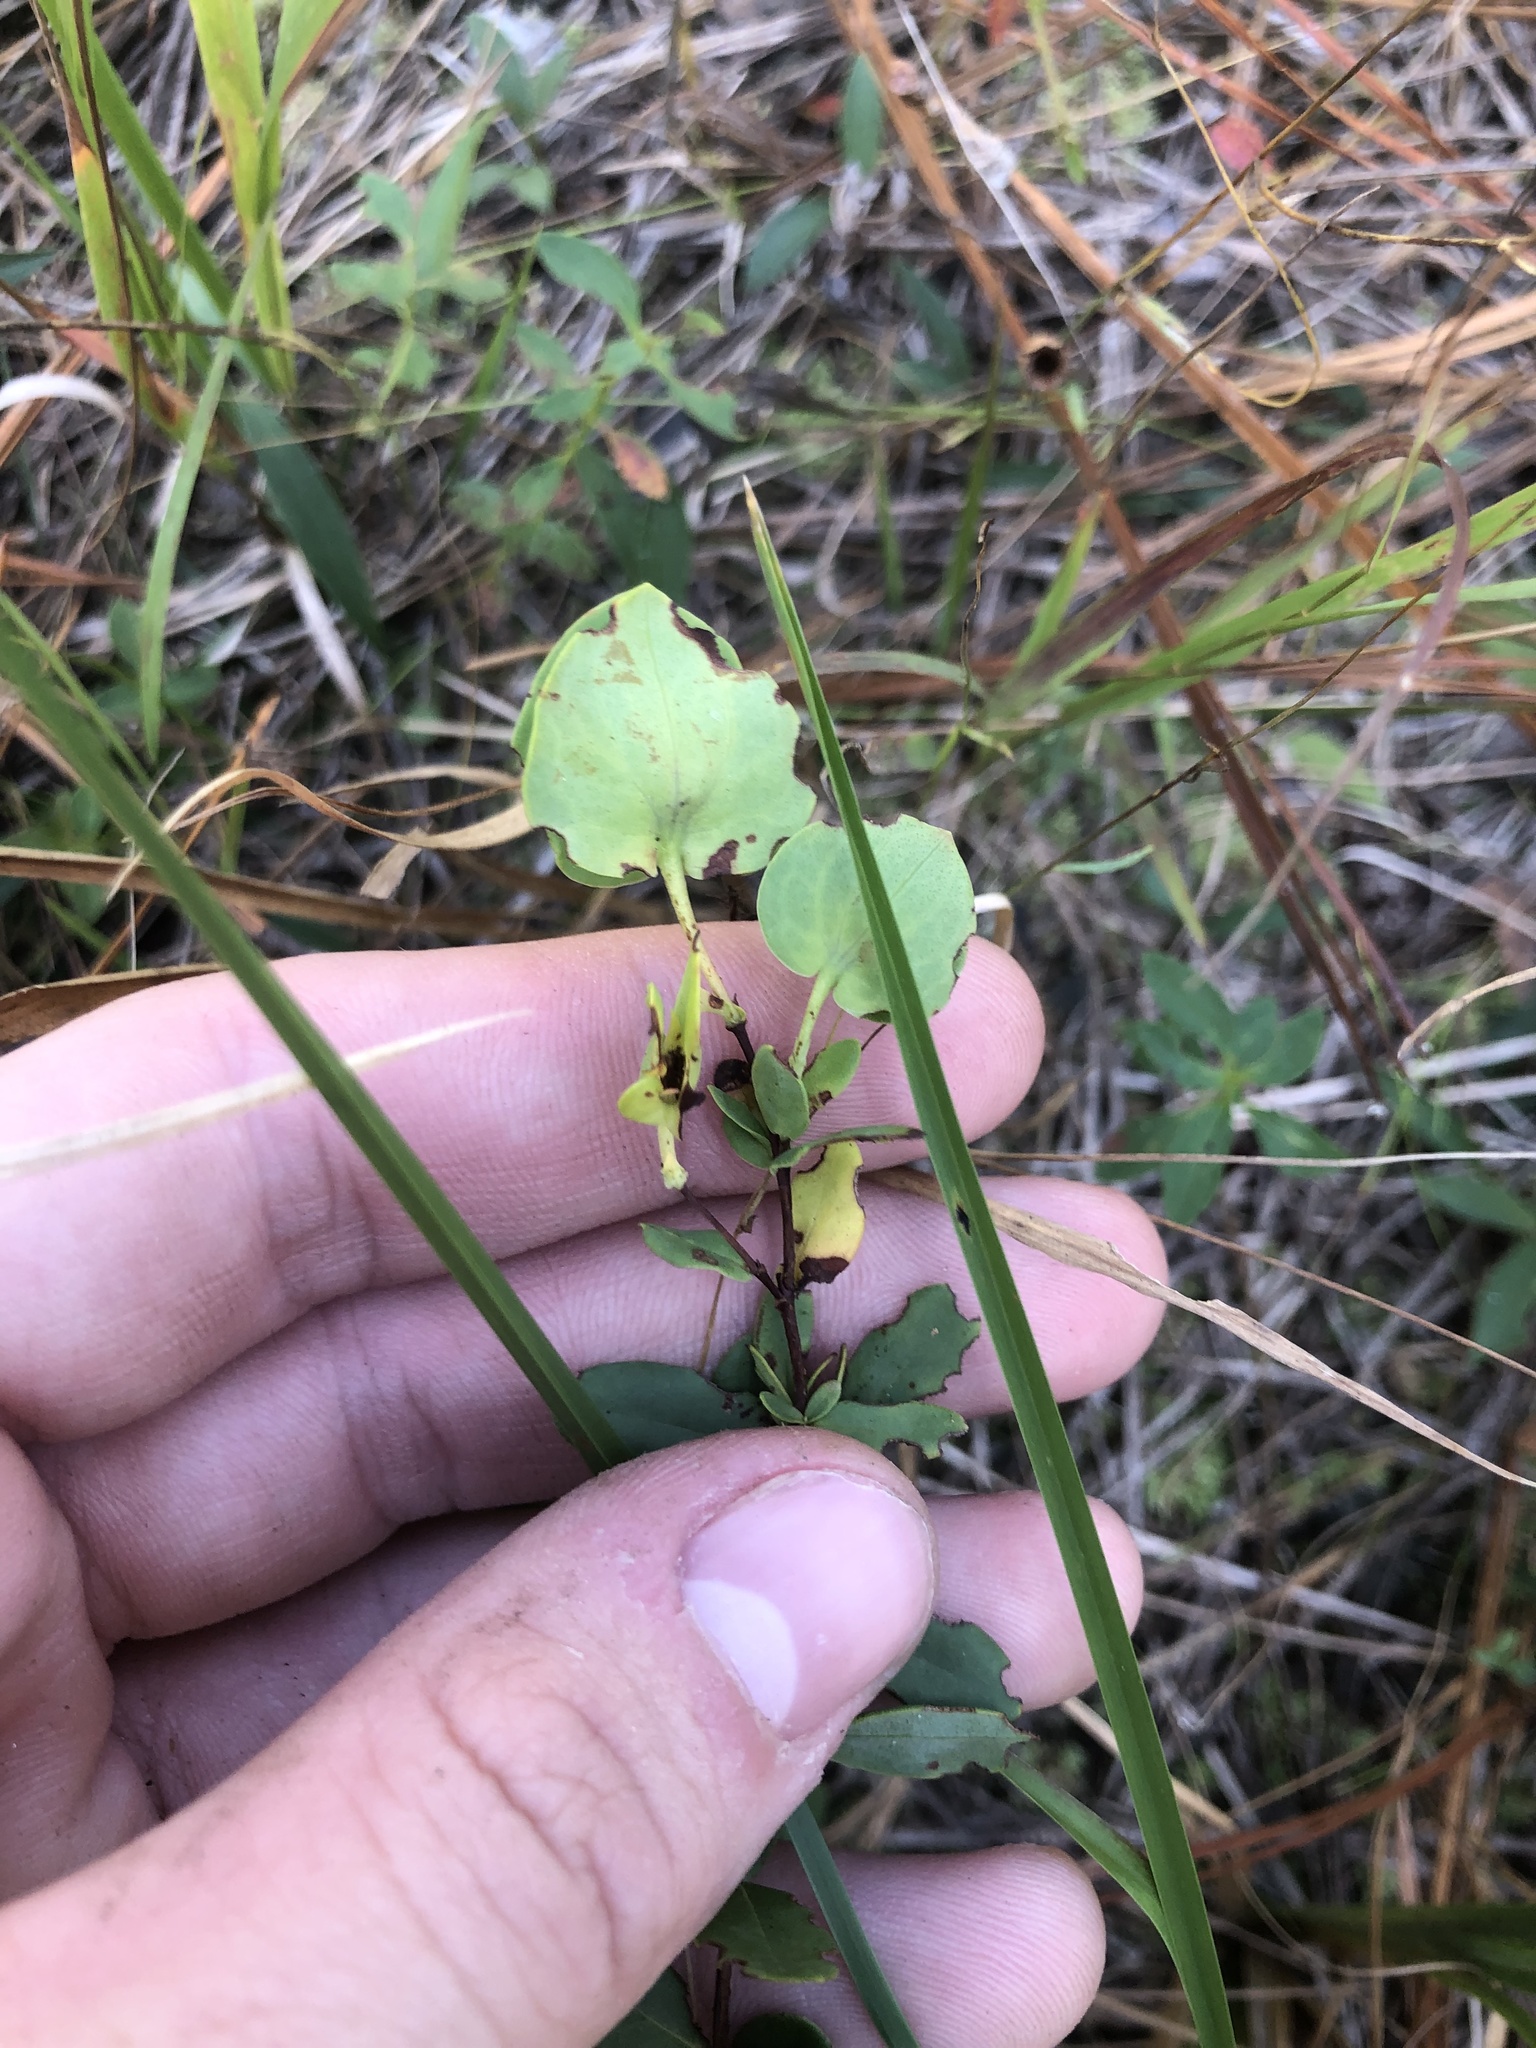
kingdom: Plantae
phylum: Tracheophyta
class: Magnoliopsida
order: Malpighiales
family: Hypericaceae
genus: Hypericum
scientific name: Hypericum crux-andreae
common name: St.-peter's-wort
